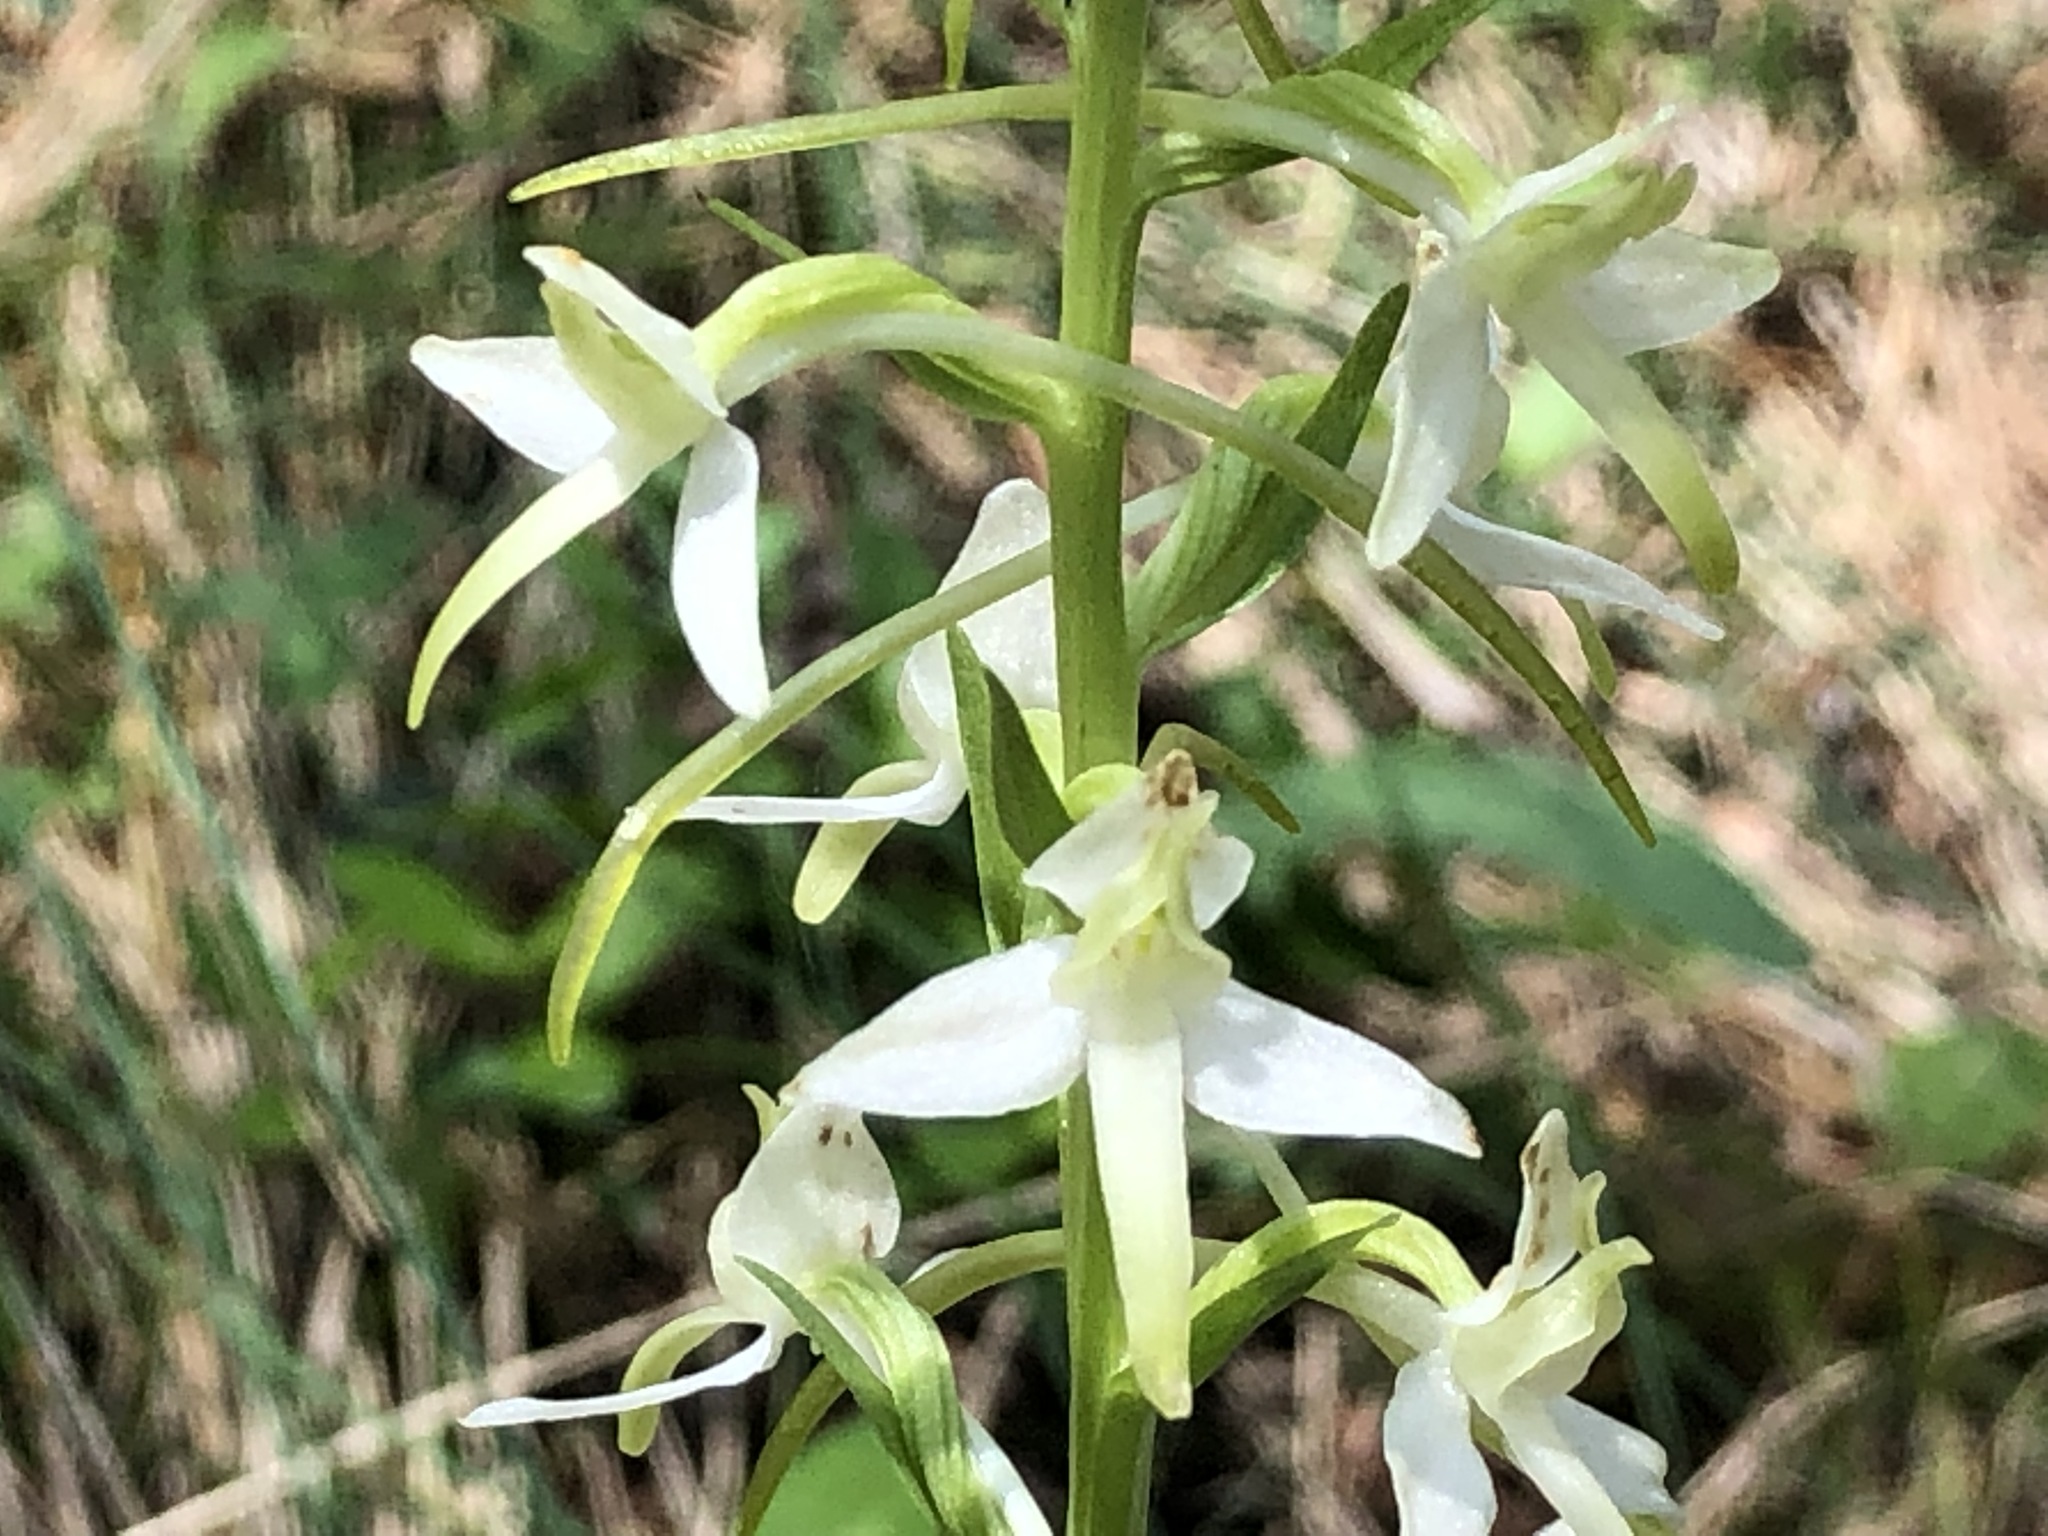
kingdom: Plantae
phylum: Tracheophyta
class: Liliopsida
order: Asparagales
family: Orchidaceae
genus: Platanthera
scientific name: Platanthera bifolia
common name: Lesser butterfly-orchid
